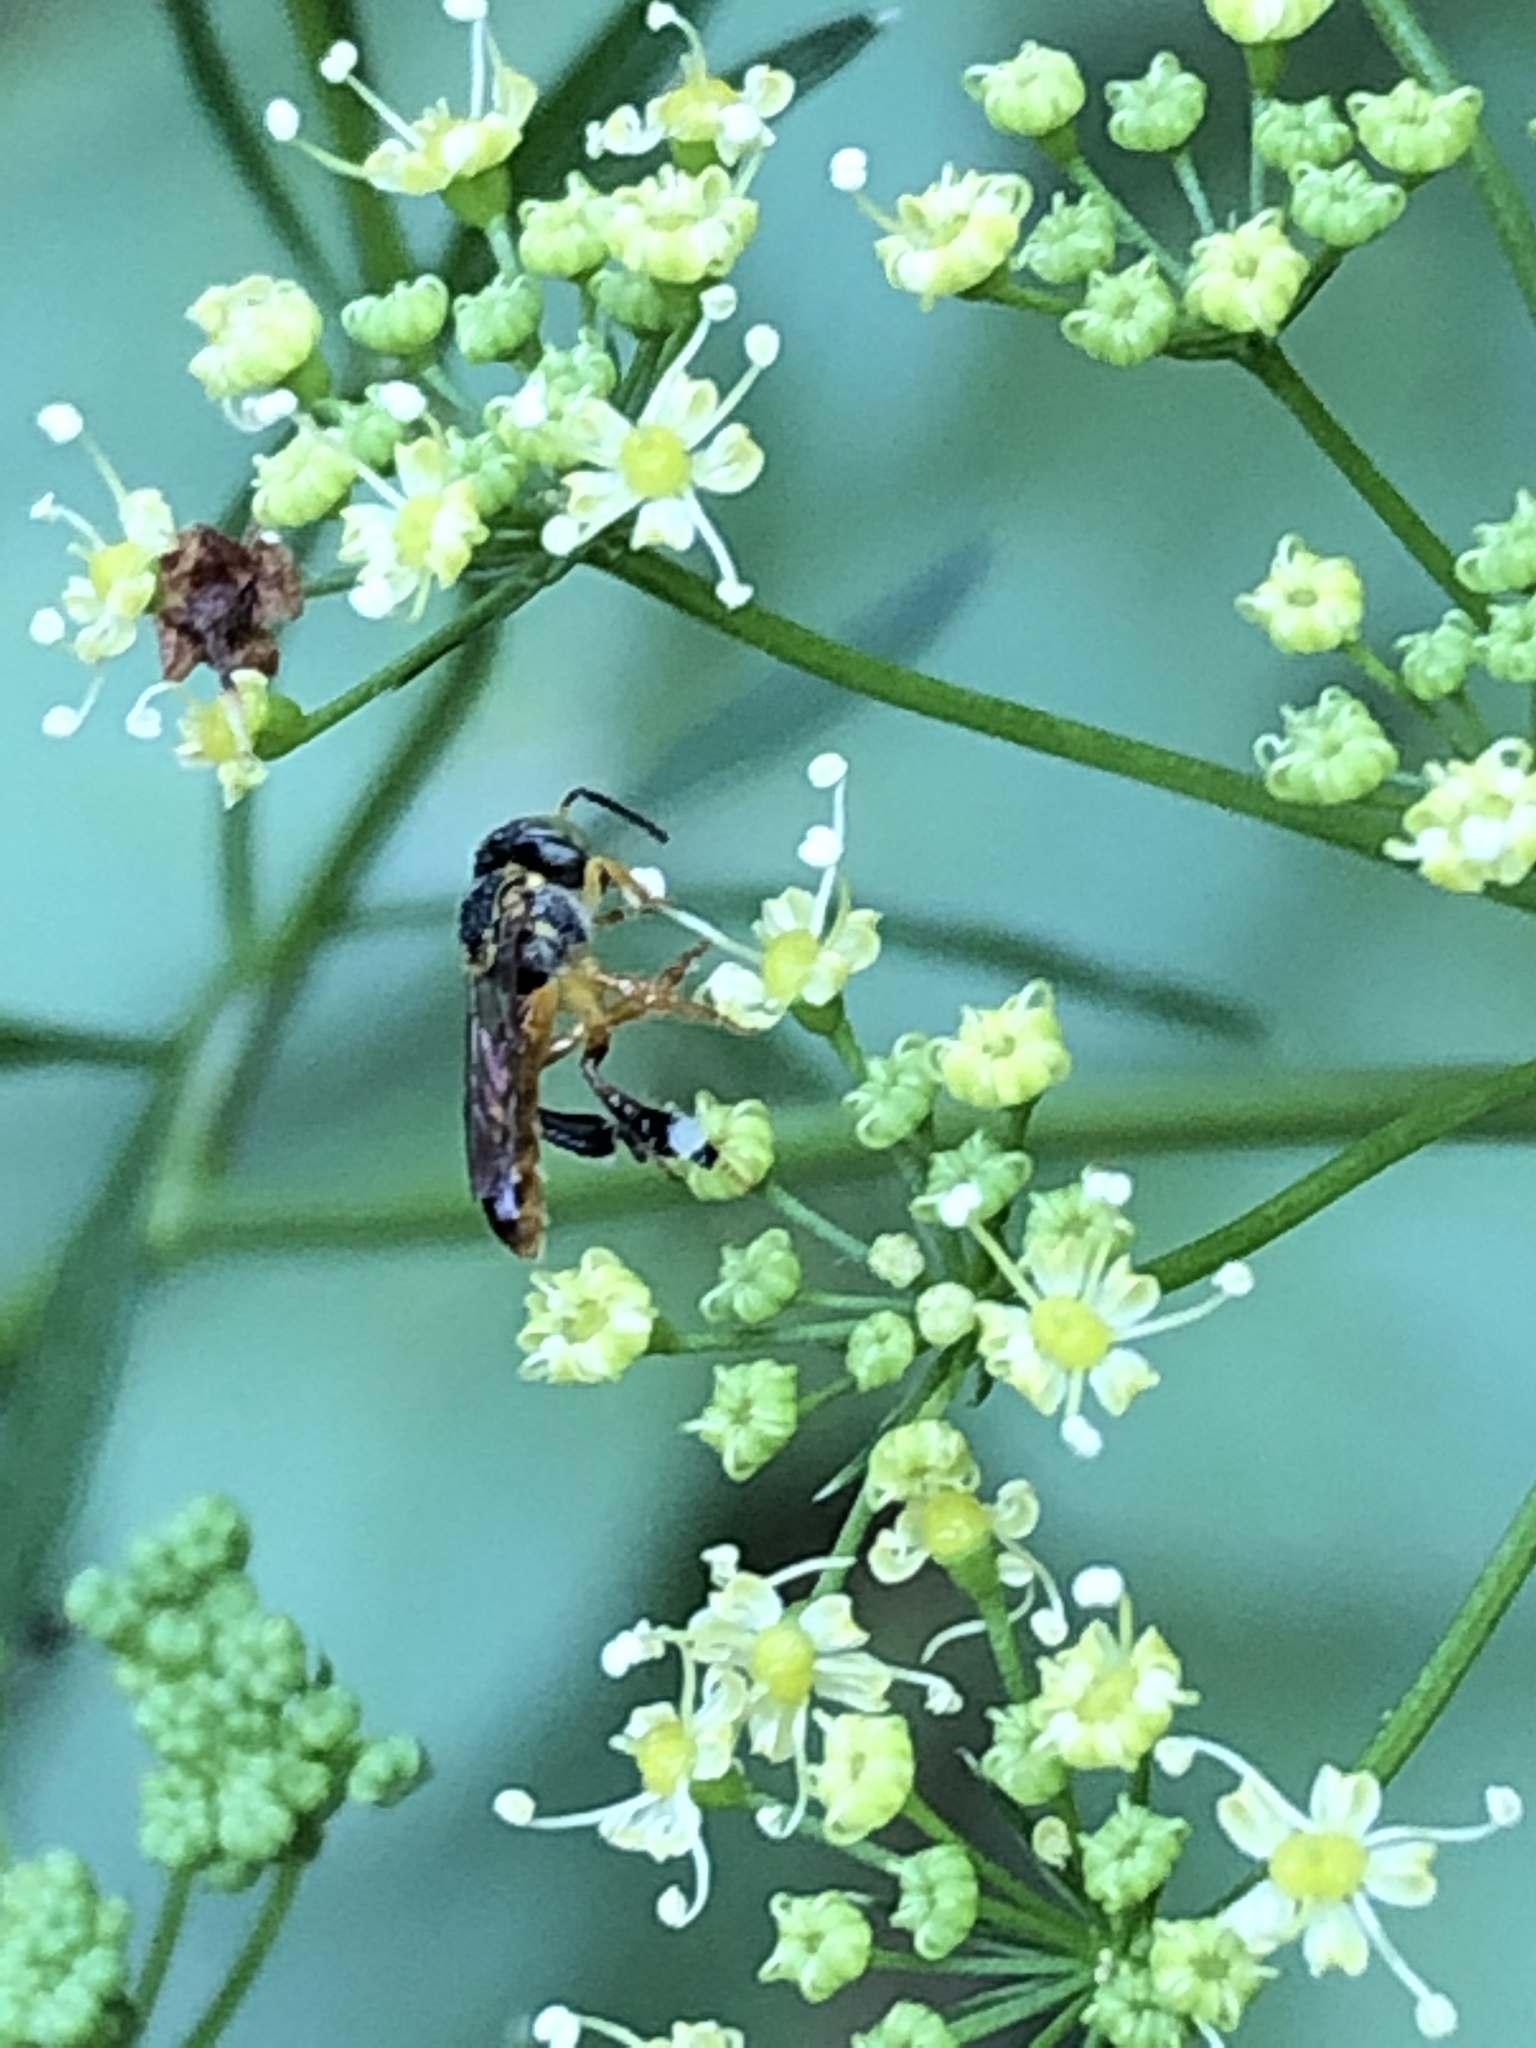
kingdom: Animalia
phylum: Arthropoda
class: Insecta
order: Hymenoptera
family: Apidae
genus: Tetragonisca
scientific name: Tetragonisca angustula
